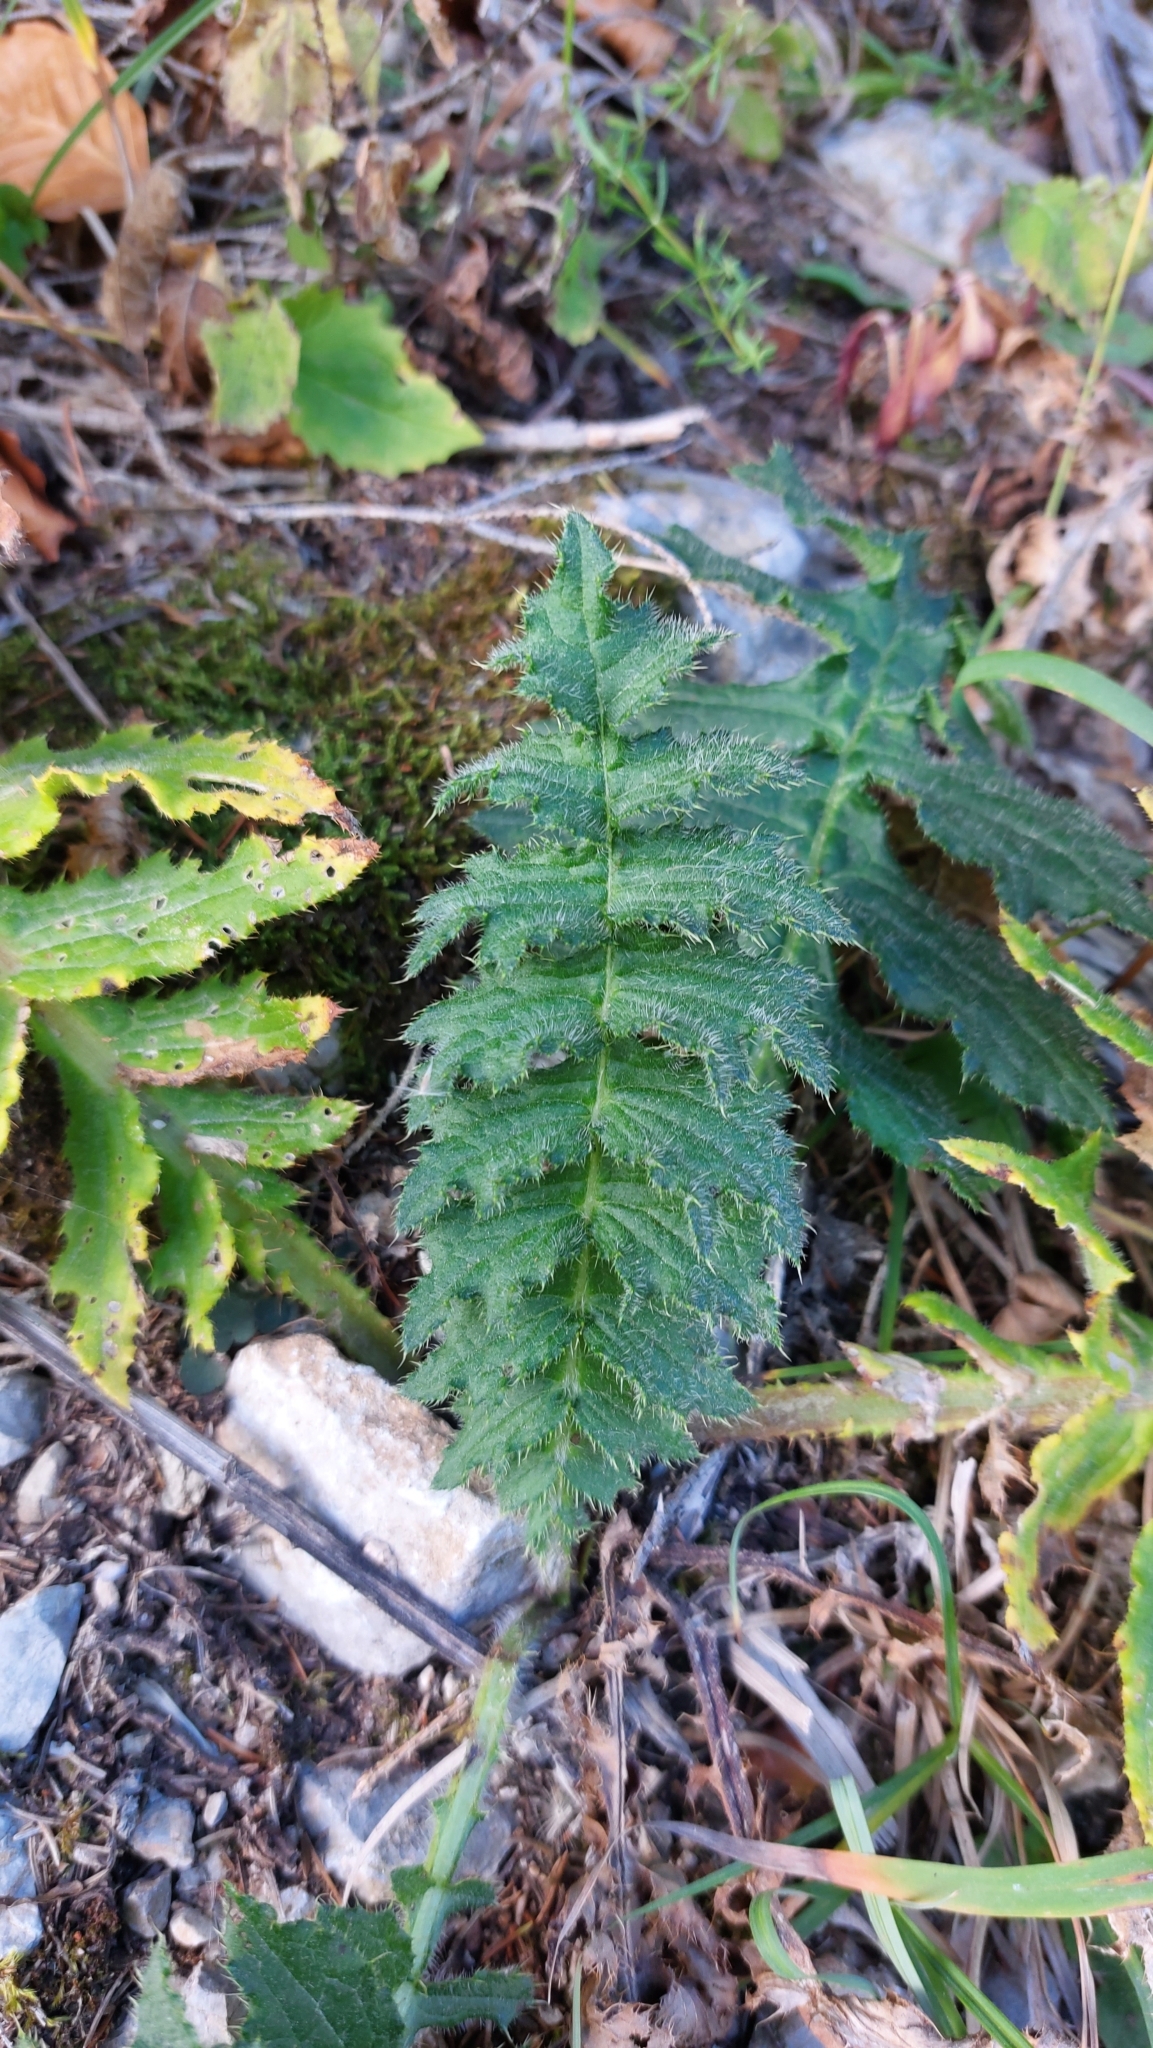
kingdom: Plantae
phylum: Tracheophyta
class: Magnoliopsida
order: Asterales
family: Asteraceae
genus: Cirsium
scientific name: Cirsium erisithales
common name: Yellow thistle
